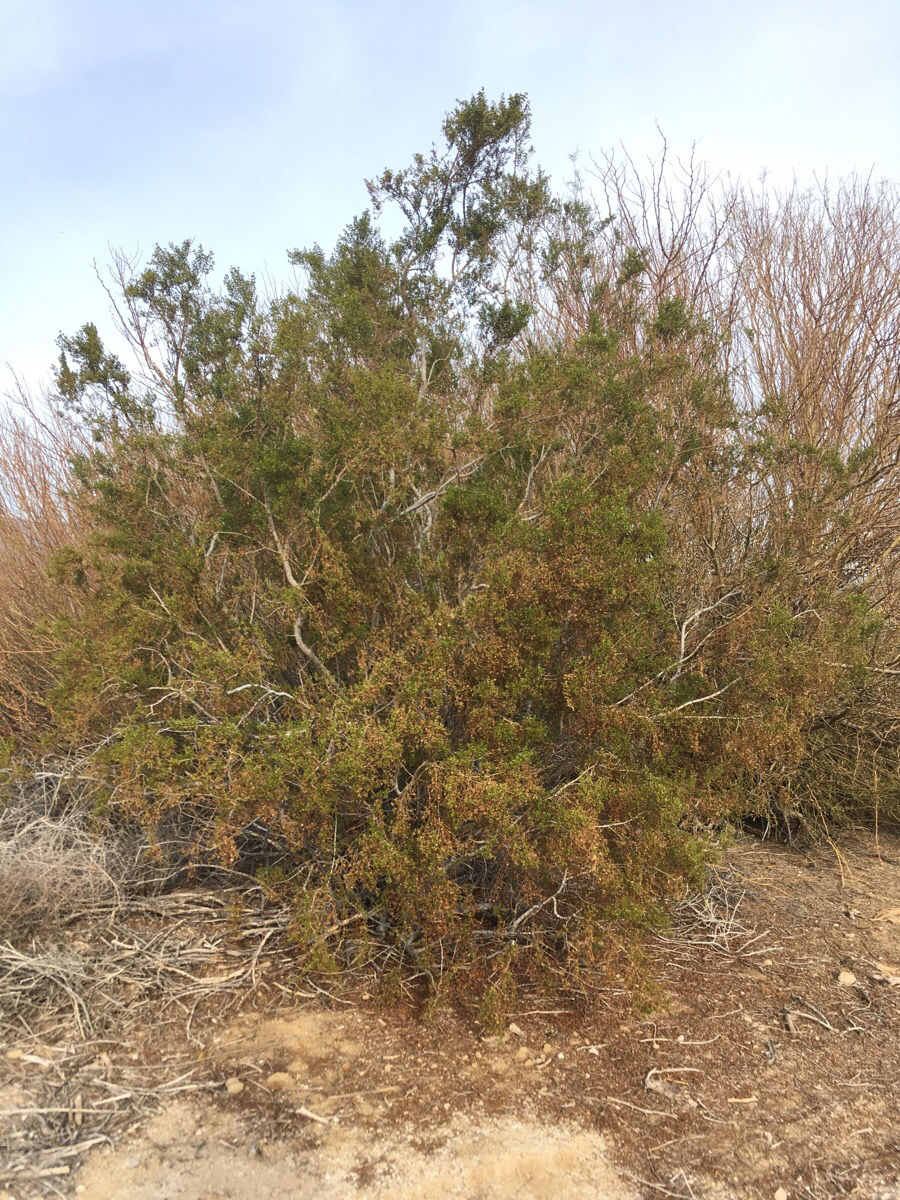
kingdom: Plantae
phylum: Tracheophyta
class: Magnoliopsida
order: Zygophyllales
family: Zygophyllaceae
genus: Larrea
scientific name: Larrea tridentata
